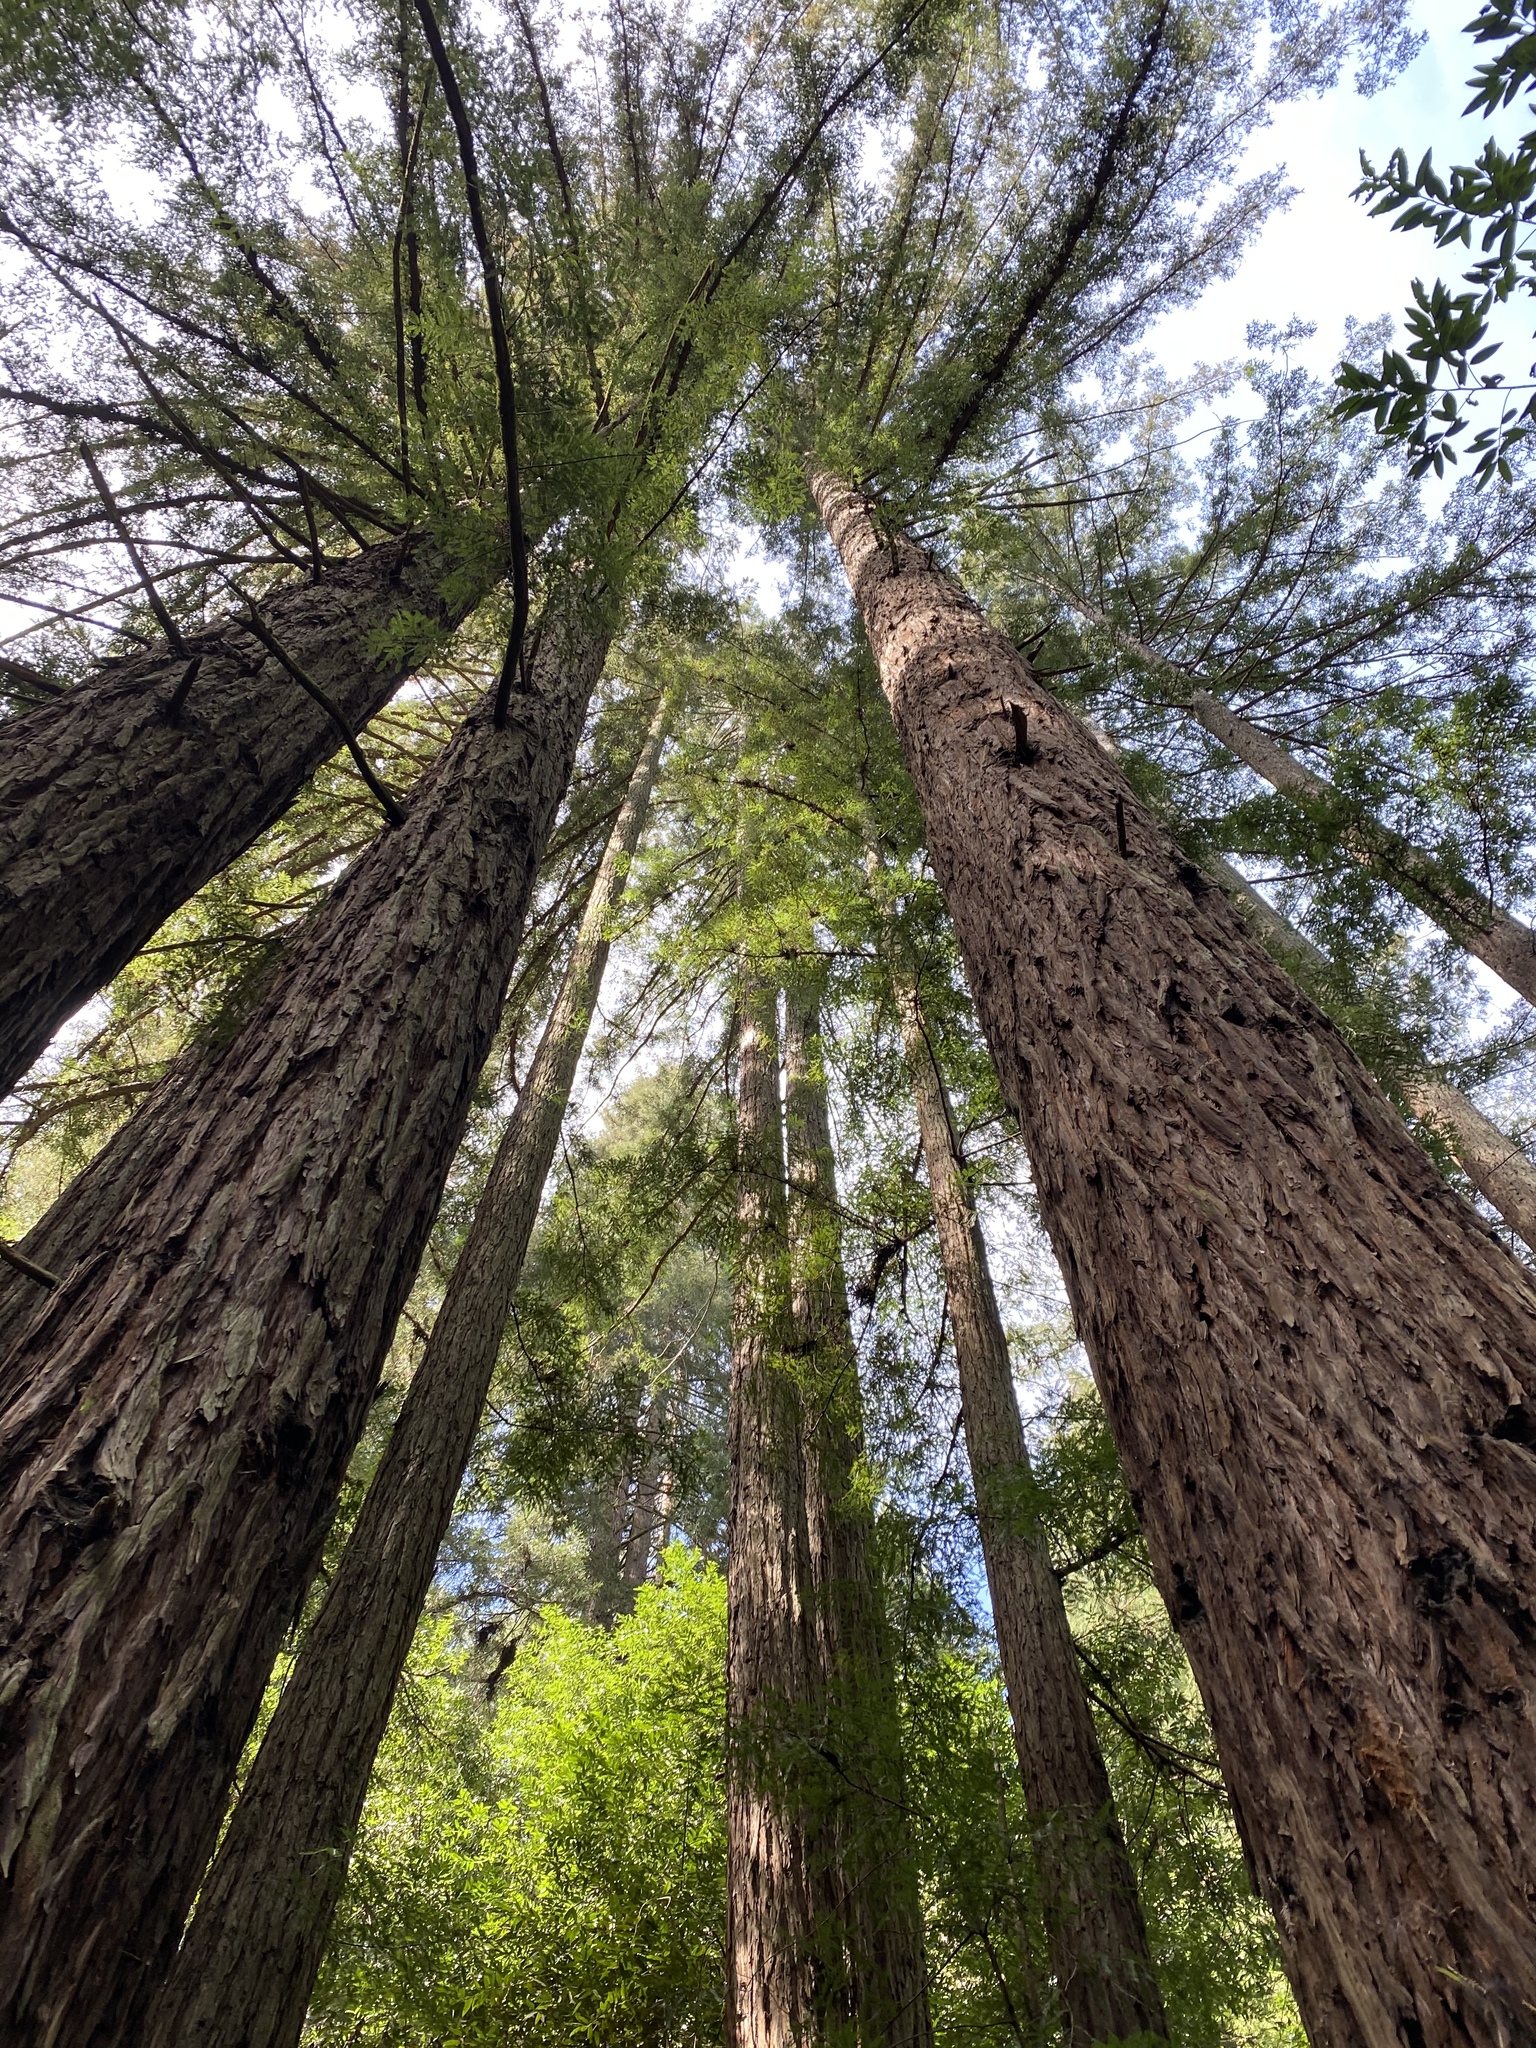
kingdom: Plantae
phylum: Tracheophyta
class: Pinopsida
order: Pinales
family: Cupressaceae
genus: Sequoia
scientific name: Sequoia sempervirens
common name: Coast redwood
